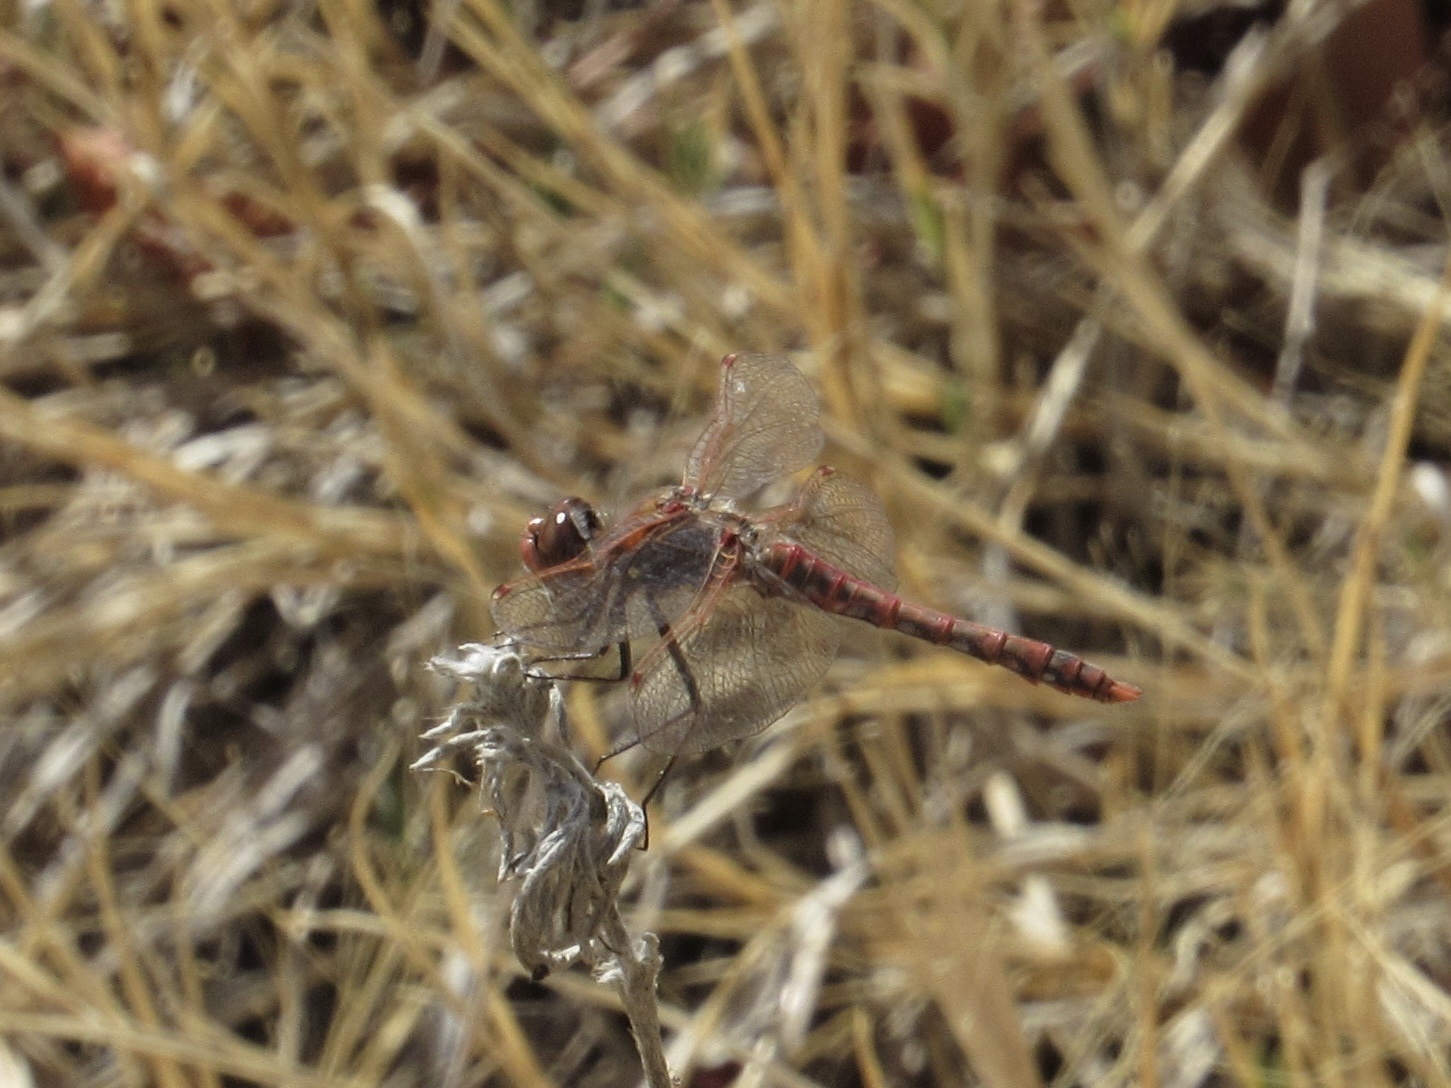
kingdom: Animalia
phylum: Arthropoda
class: Insecta
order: Odonata
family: Libellulidae
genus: Sympetrum
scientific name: Sympetrum corruptum
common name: Variegated meadowhawk
